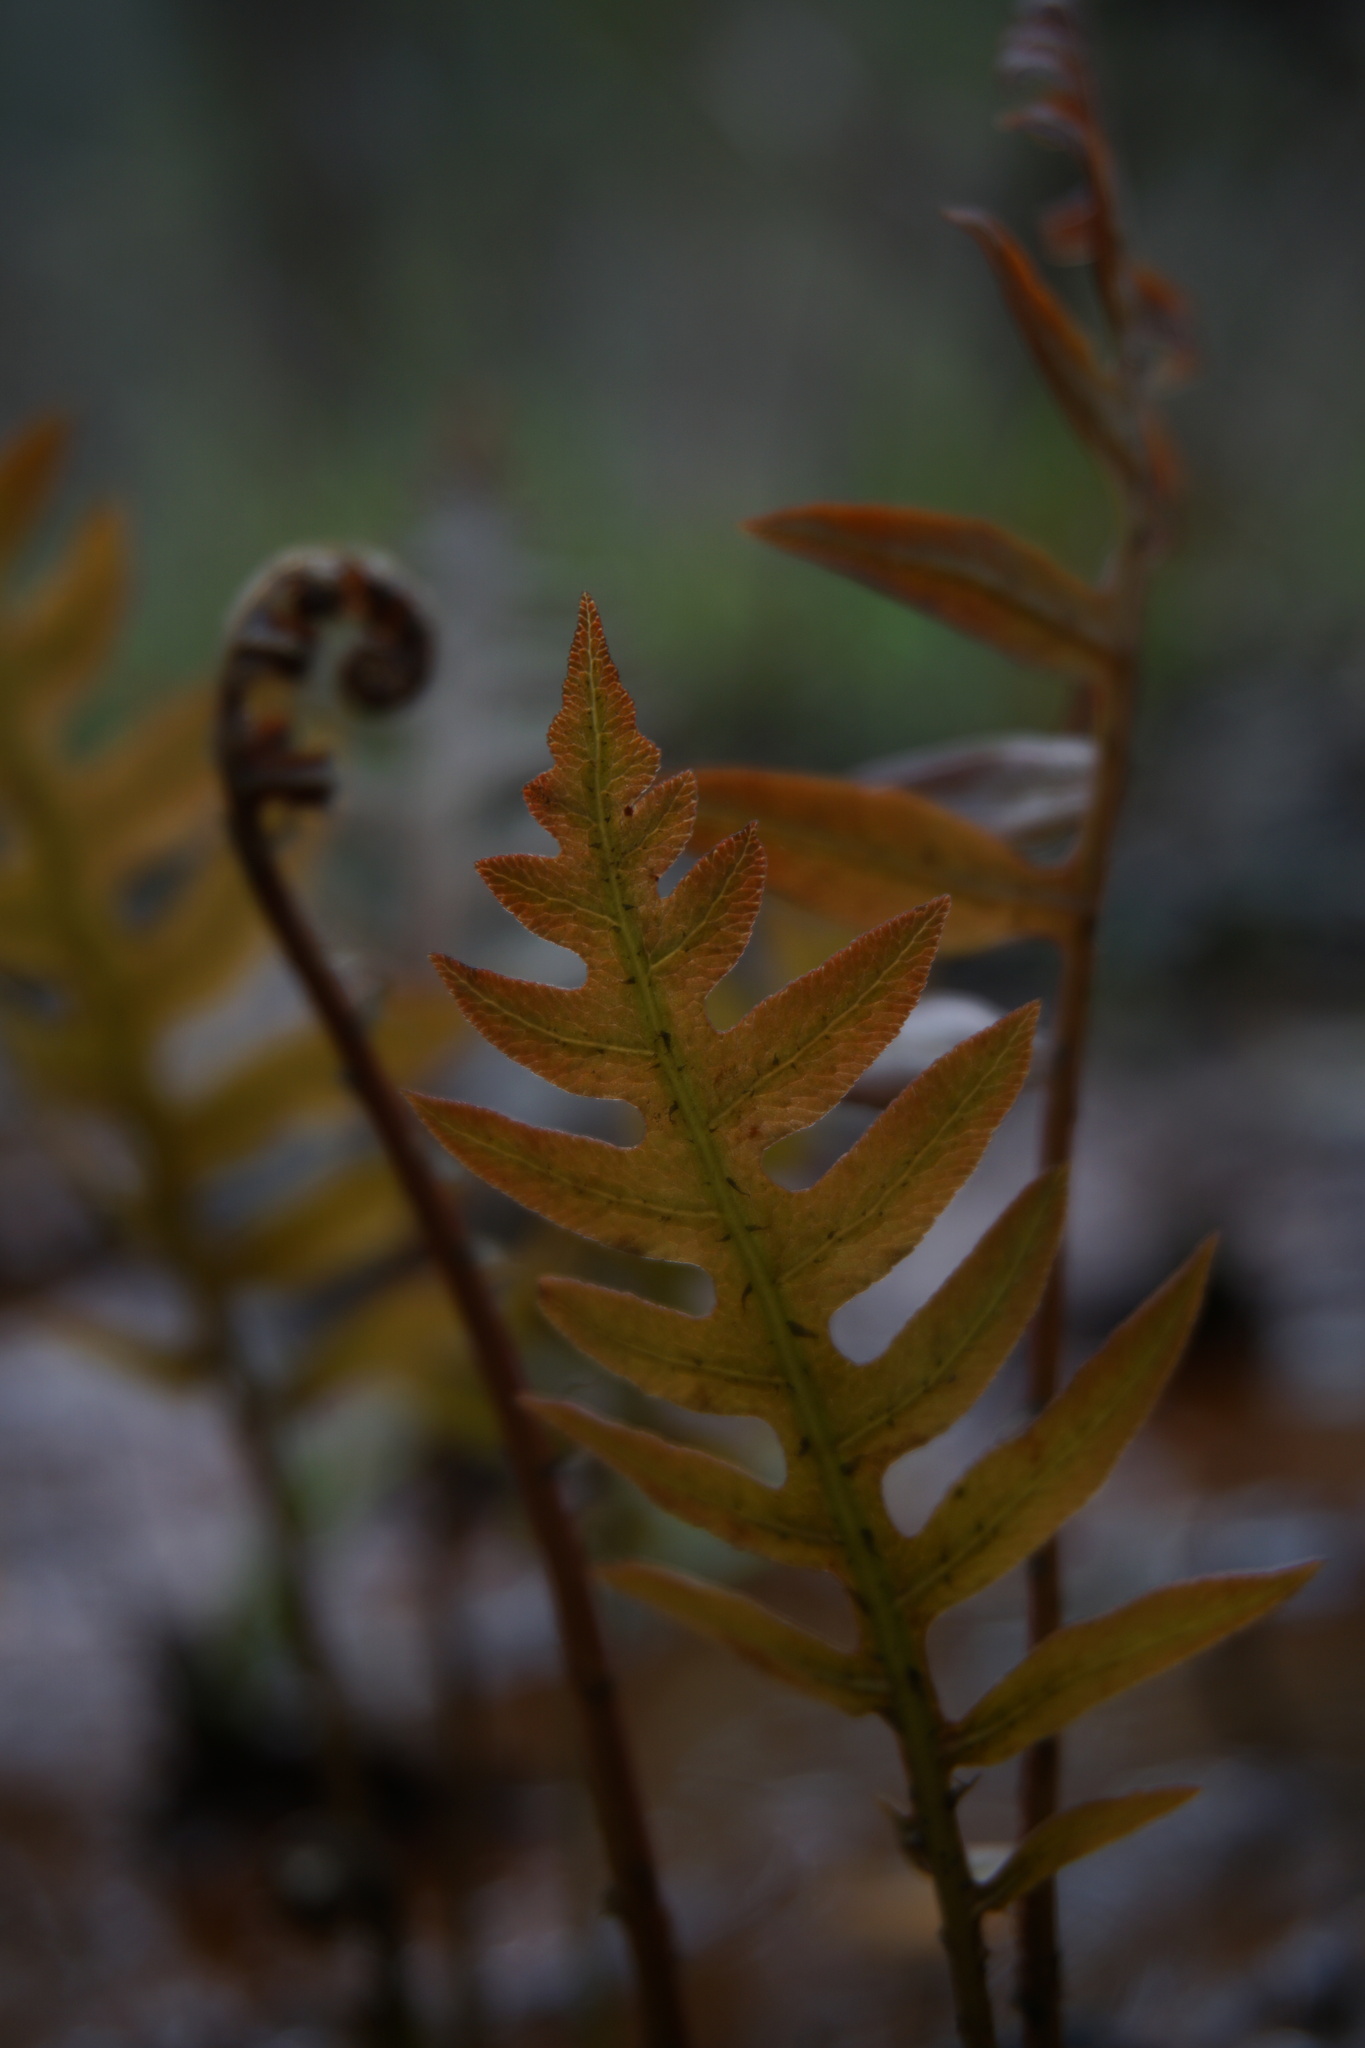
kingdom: Plantae
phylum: Tracheophyta
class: Polypodiopsida
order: Polypodiales
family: Blechnaceae
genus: Lorinseria
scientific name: Lorinseria areolata
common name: Dwarf chain fern
